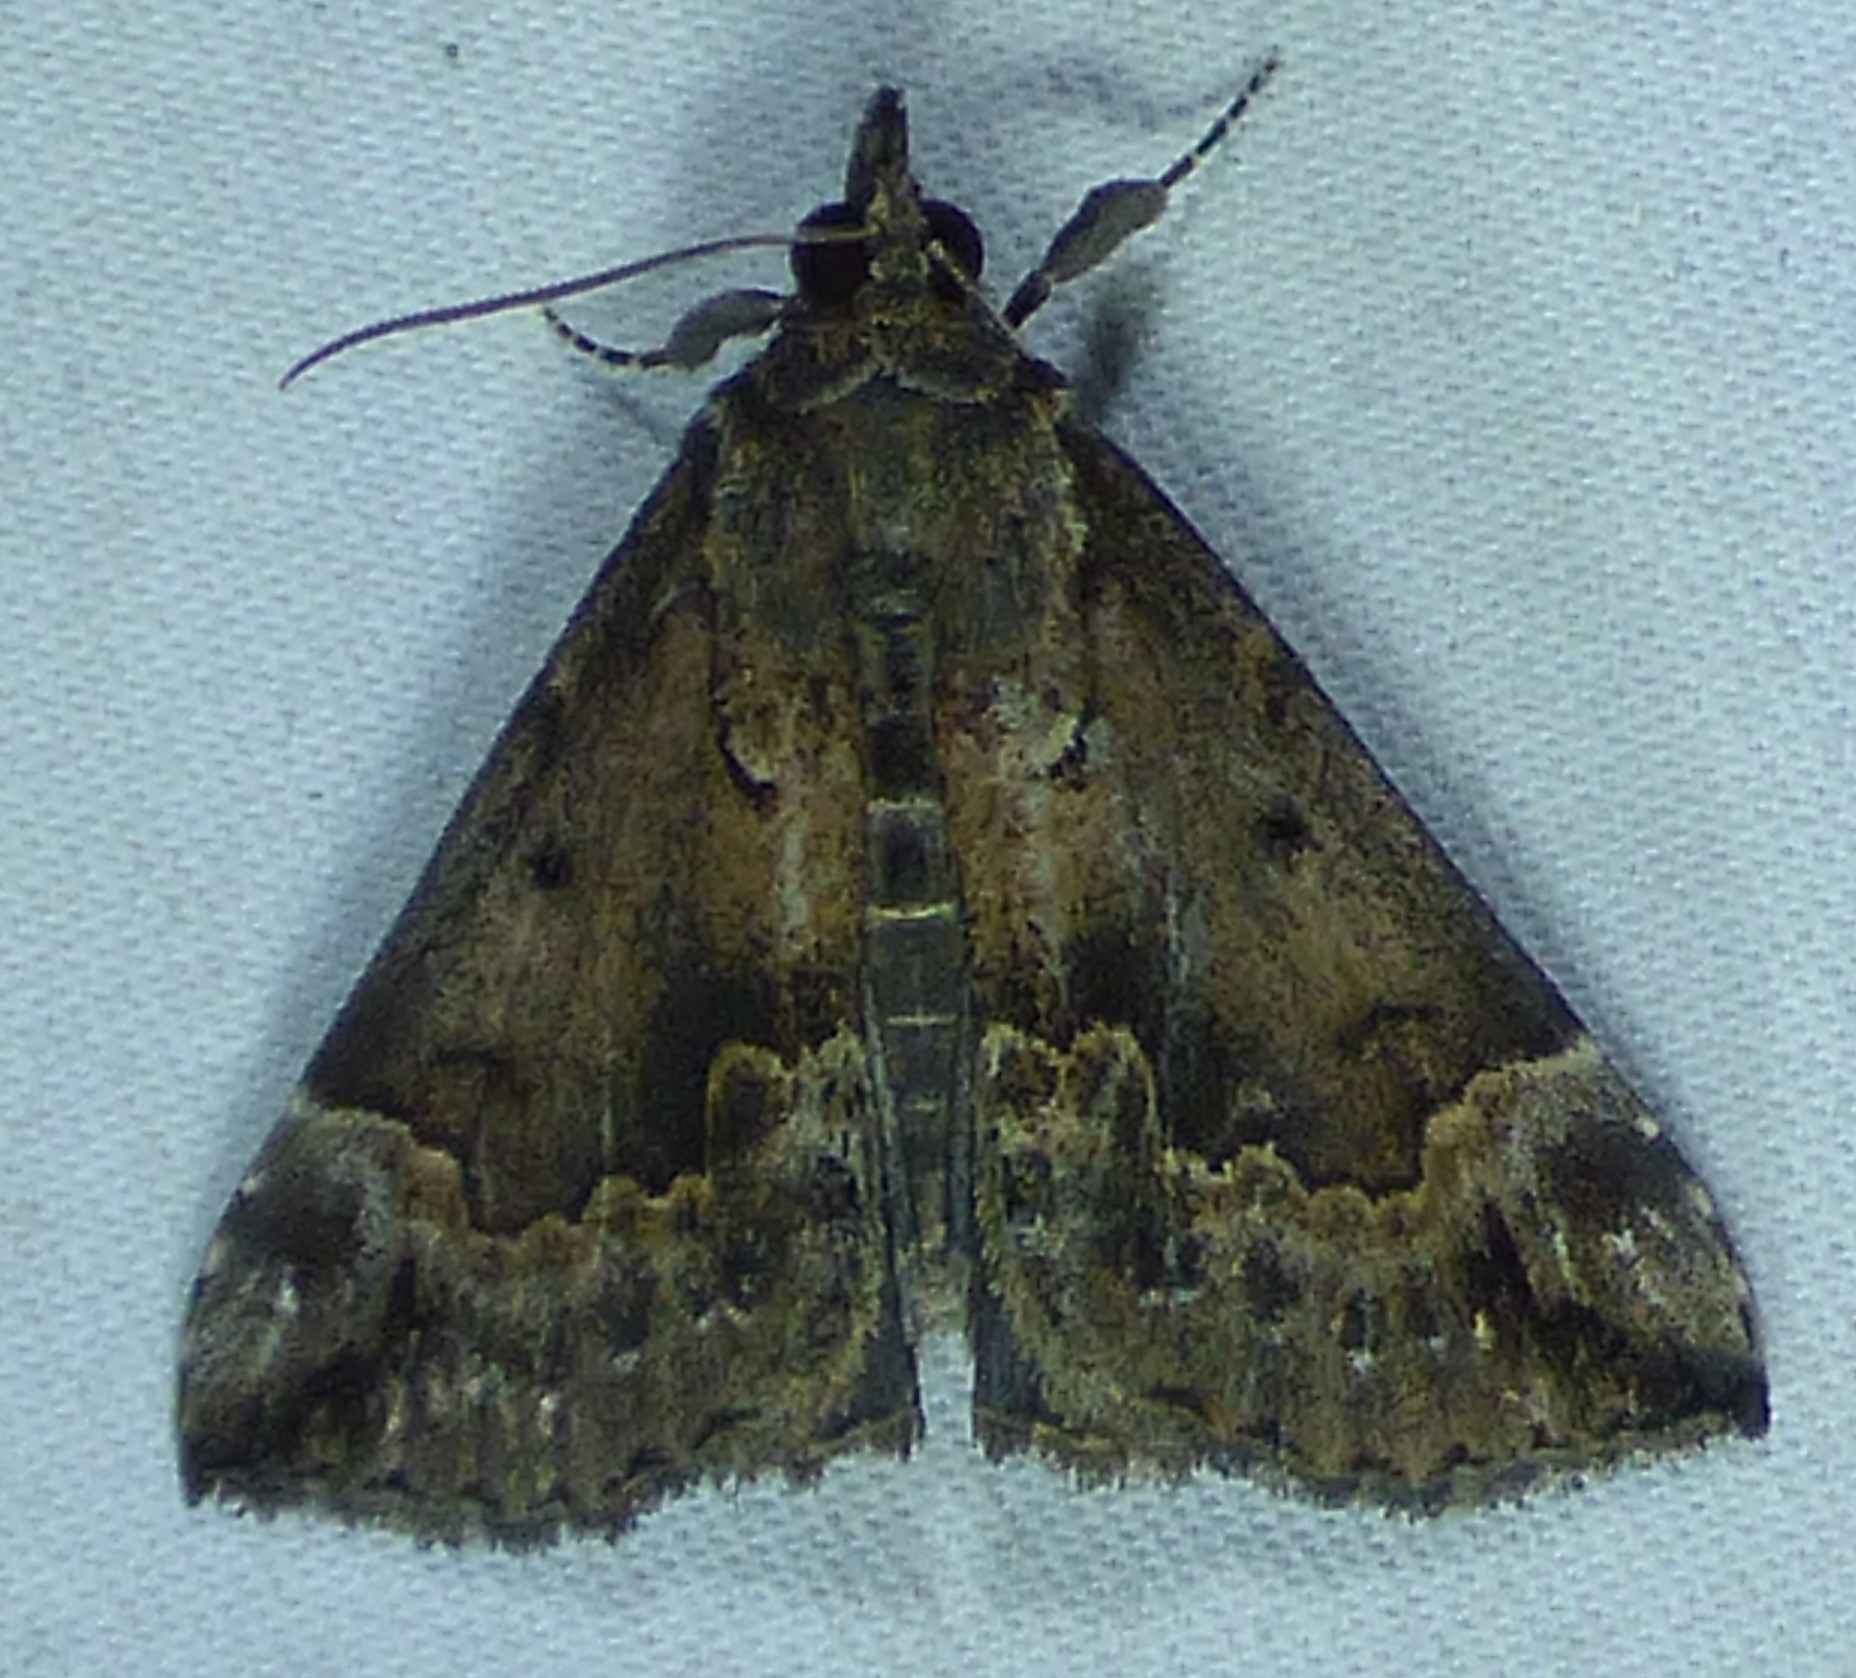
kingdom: Animalia
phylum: Arthropoda
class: Insecta
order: Lepidoptera
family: Erebidae
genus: Hypena
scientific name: Hypena baltimoralis
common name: Baltimore snout
